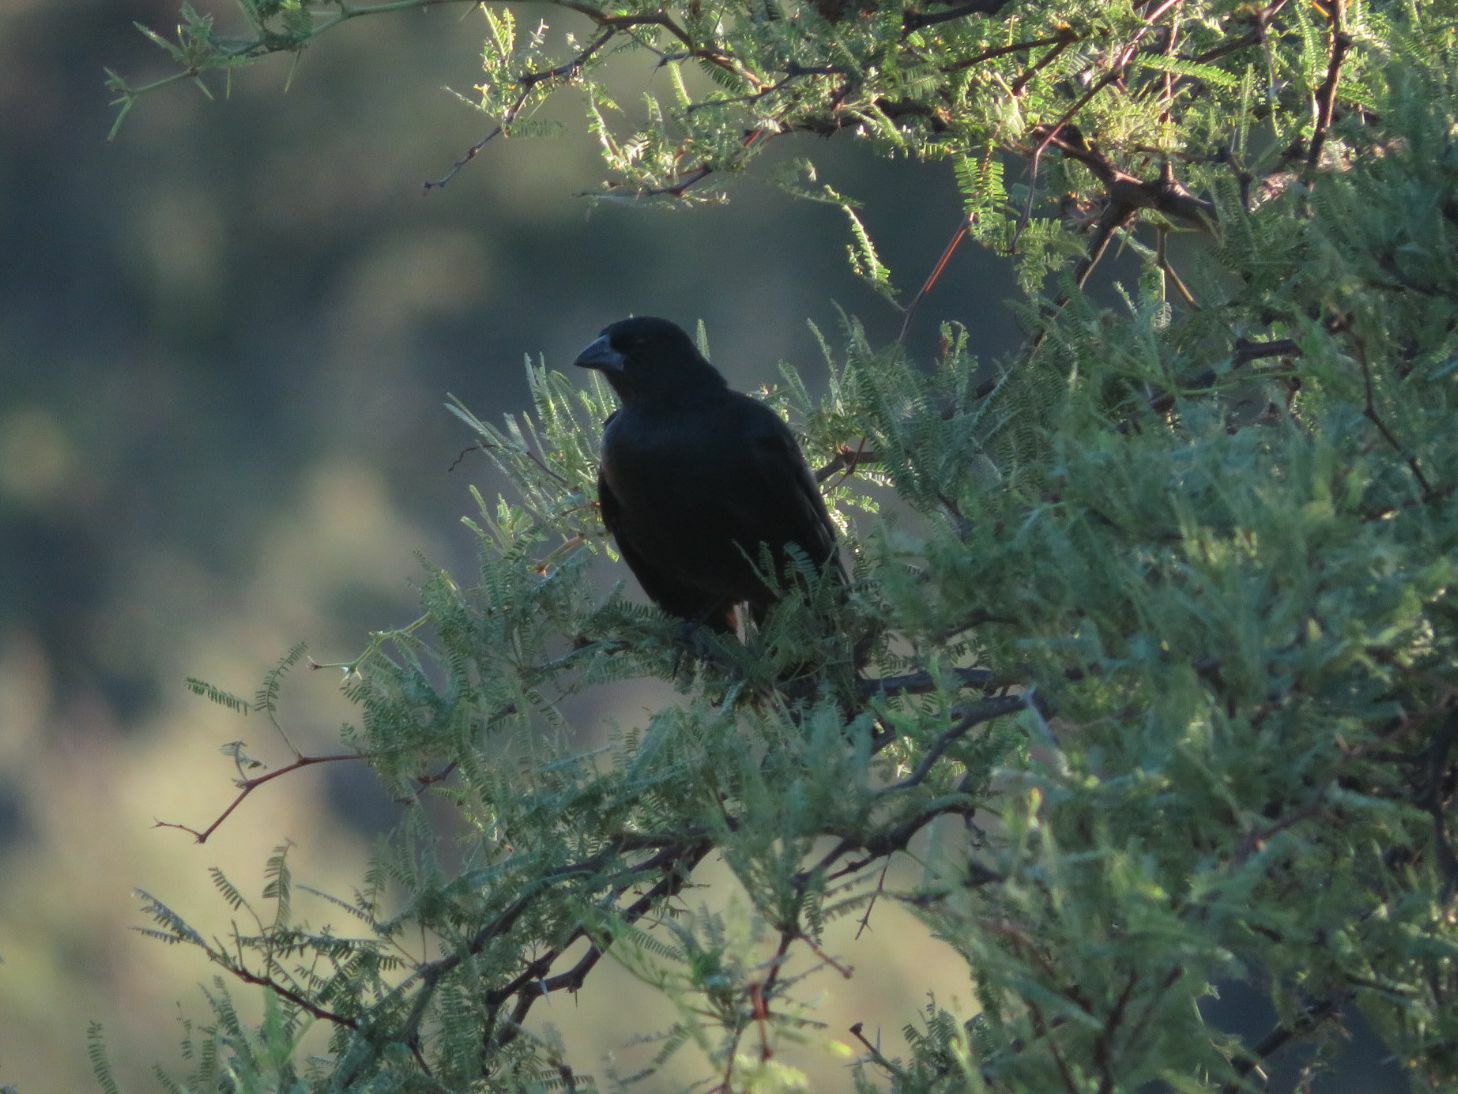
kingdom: Animalia
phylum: Chordata
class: Aves
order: Passeriformes
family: Icteridae
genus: Molothrus
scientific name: Molothrus rufoaxillaris
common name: Screaming cowbird
